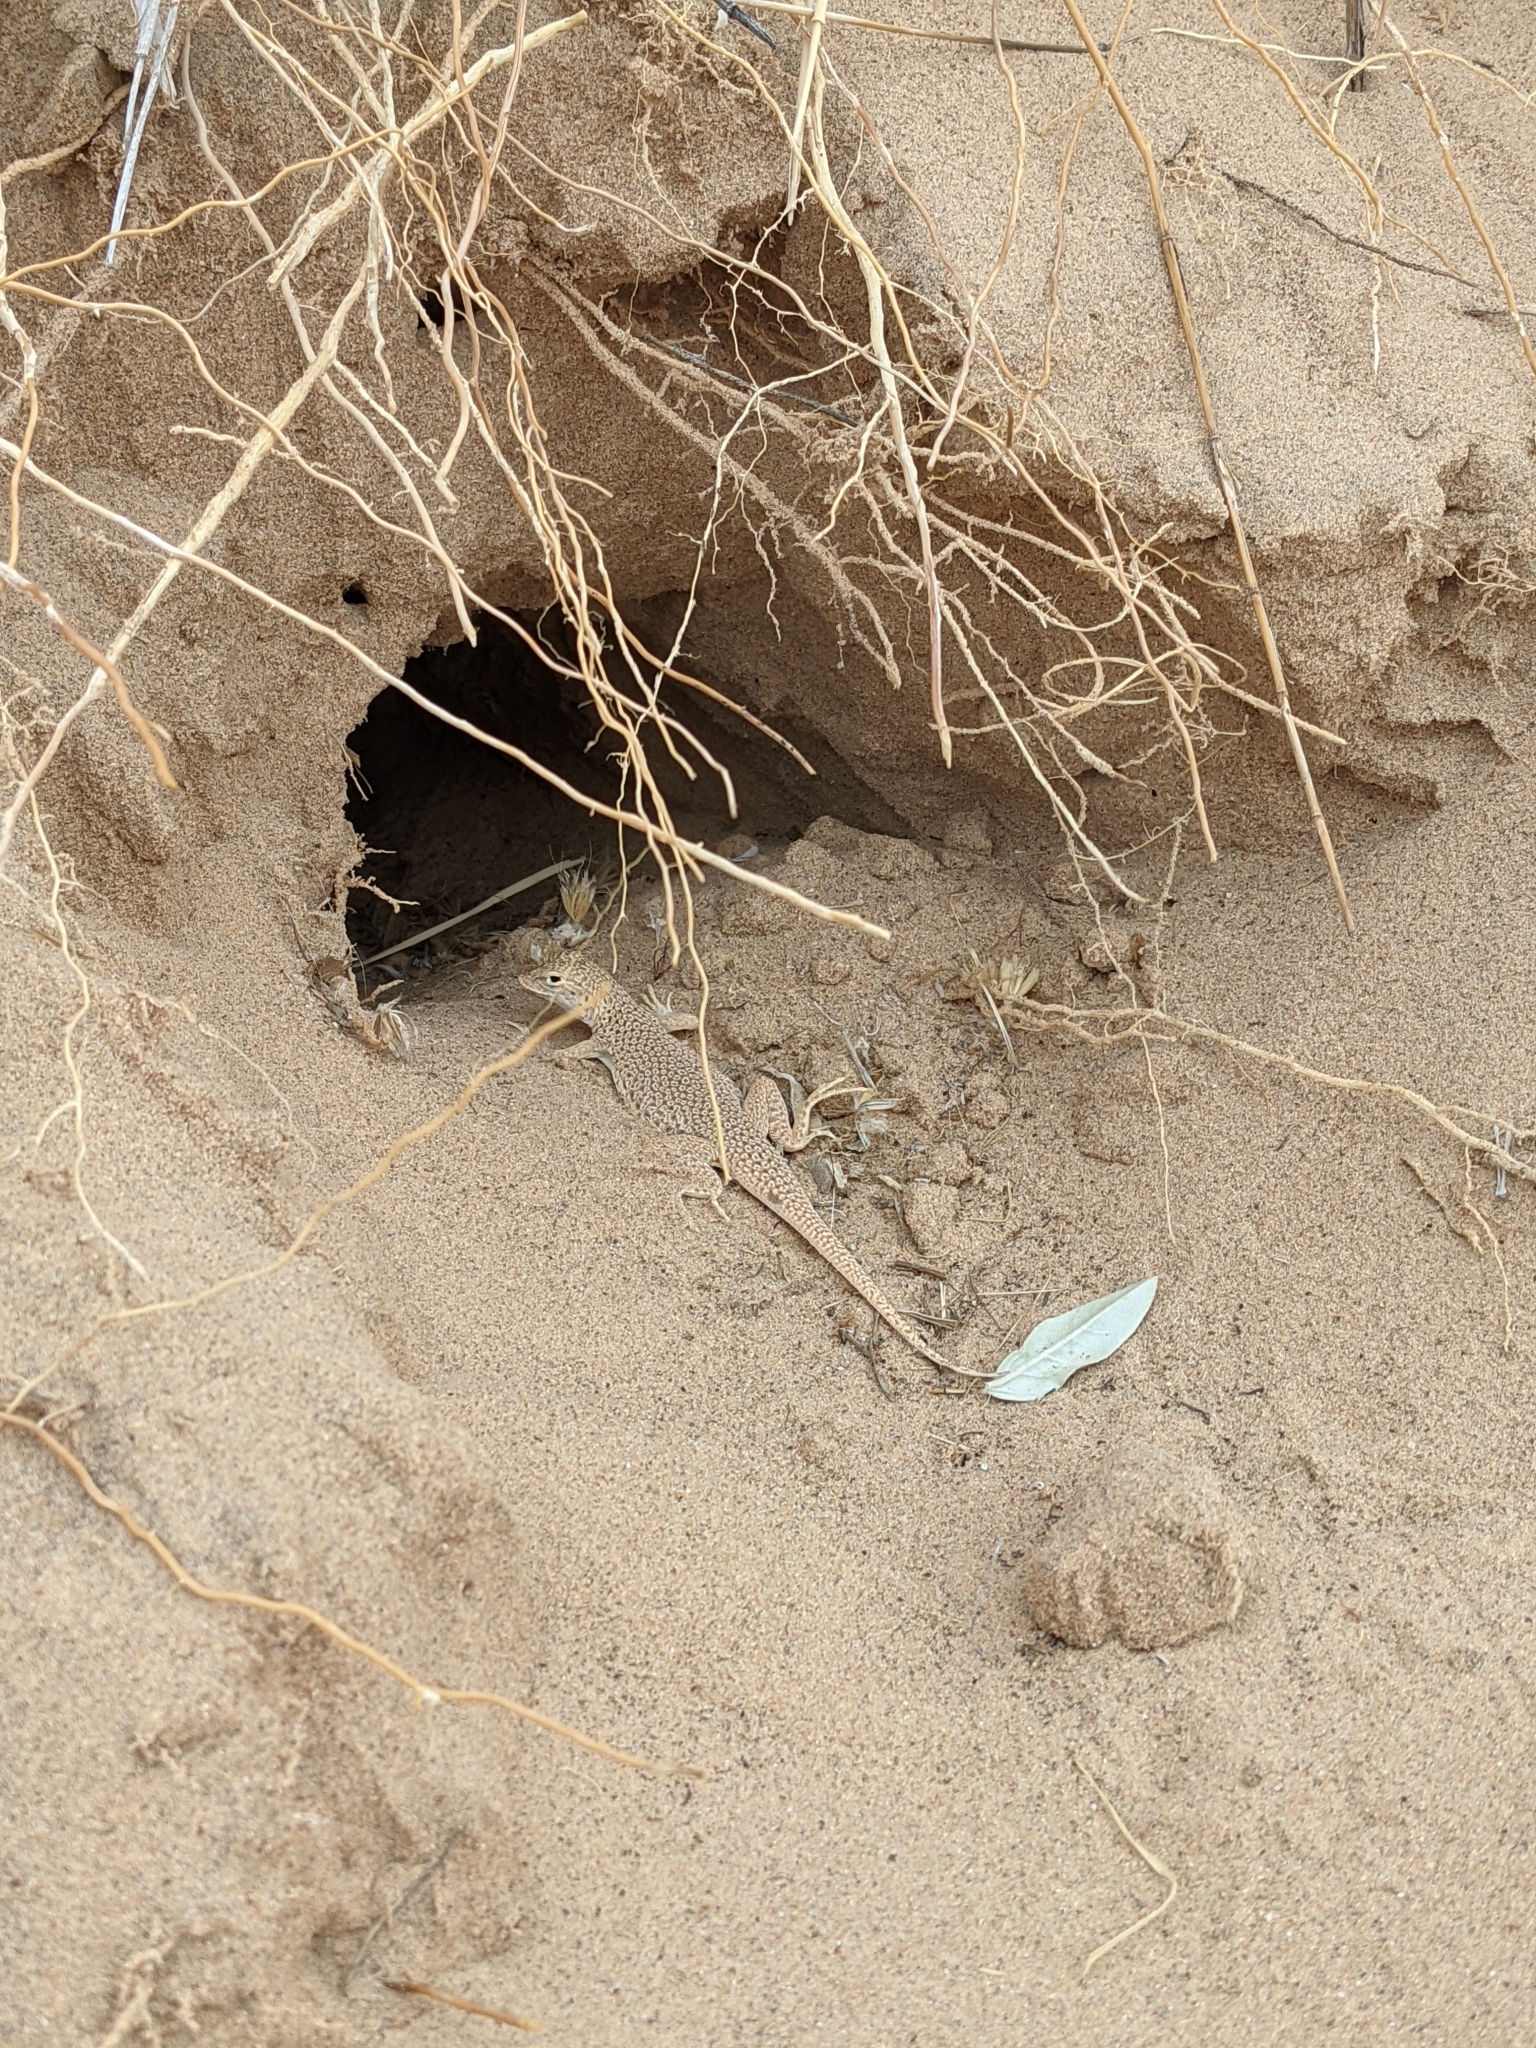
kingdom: Animalia
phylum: Chordata
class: Squamata
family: Phrynosomatidae
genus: Uma
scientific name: Uma scoparia
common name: Mojave fringe-toed lizard
